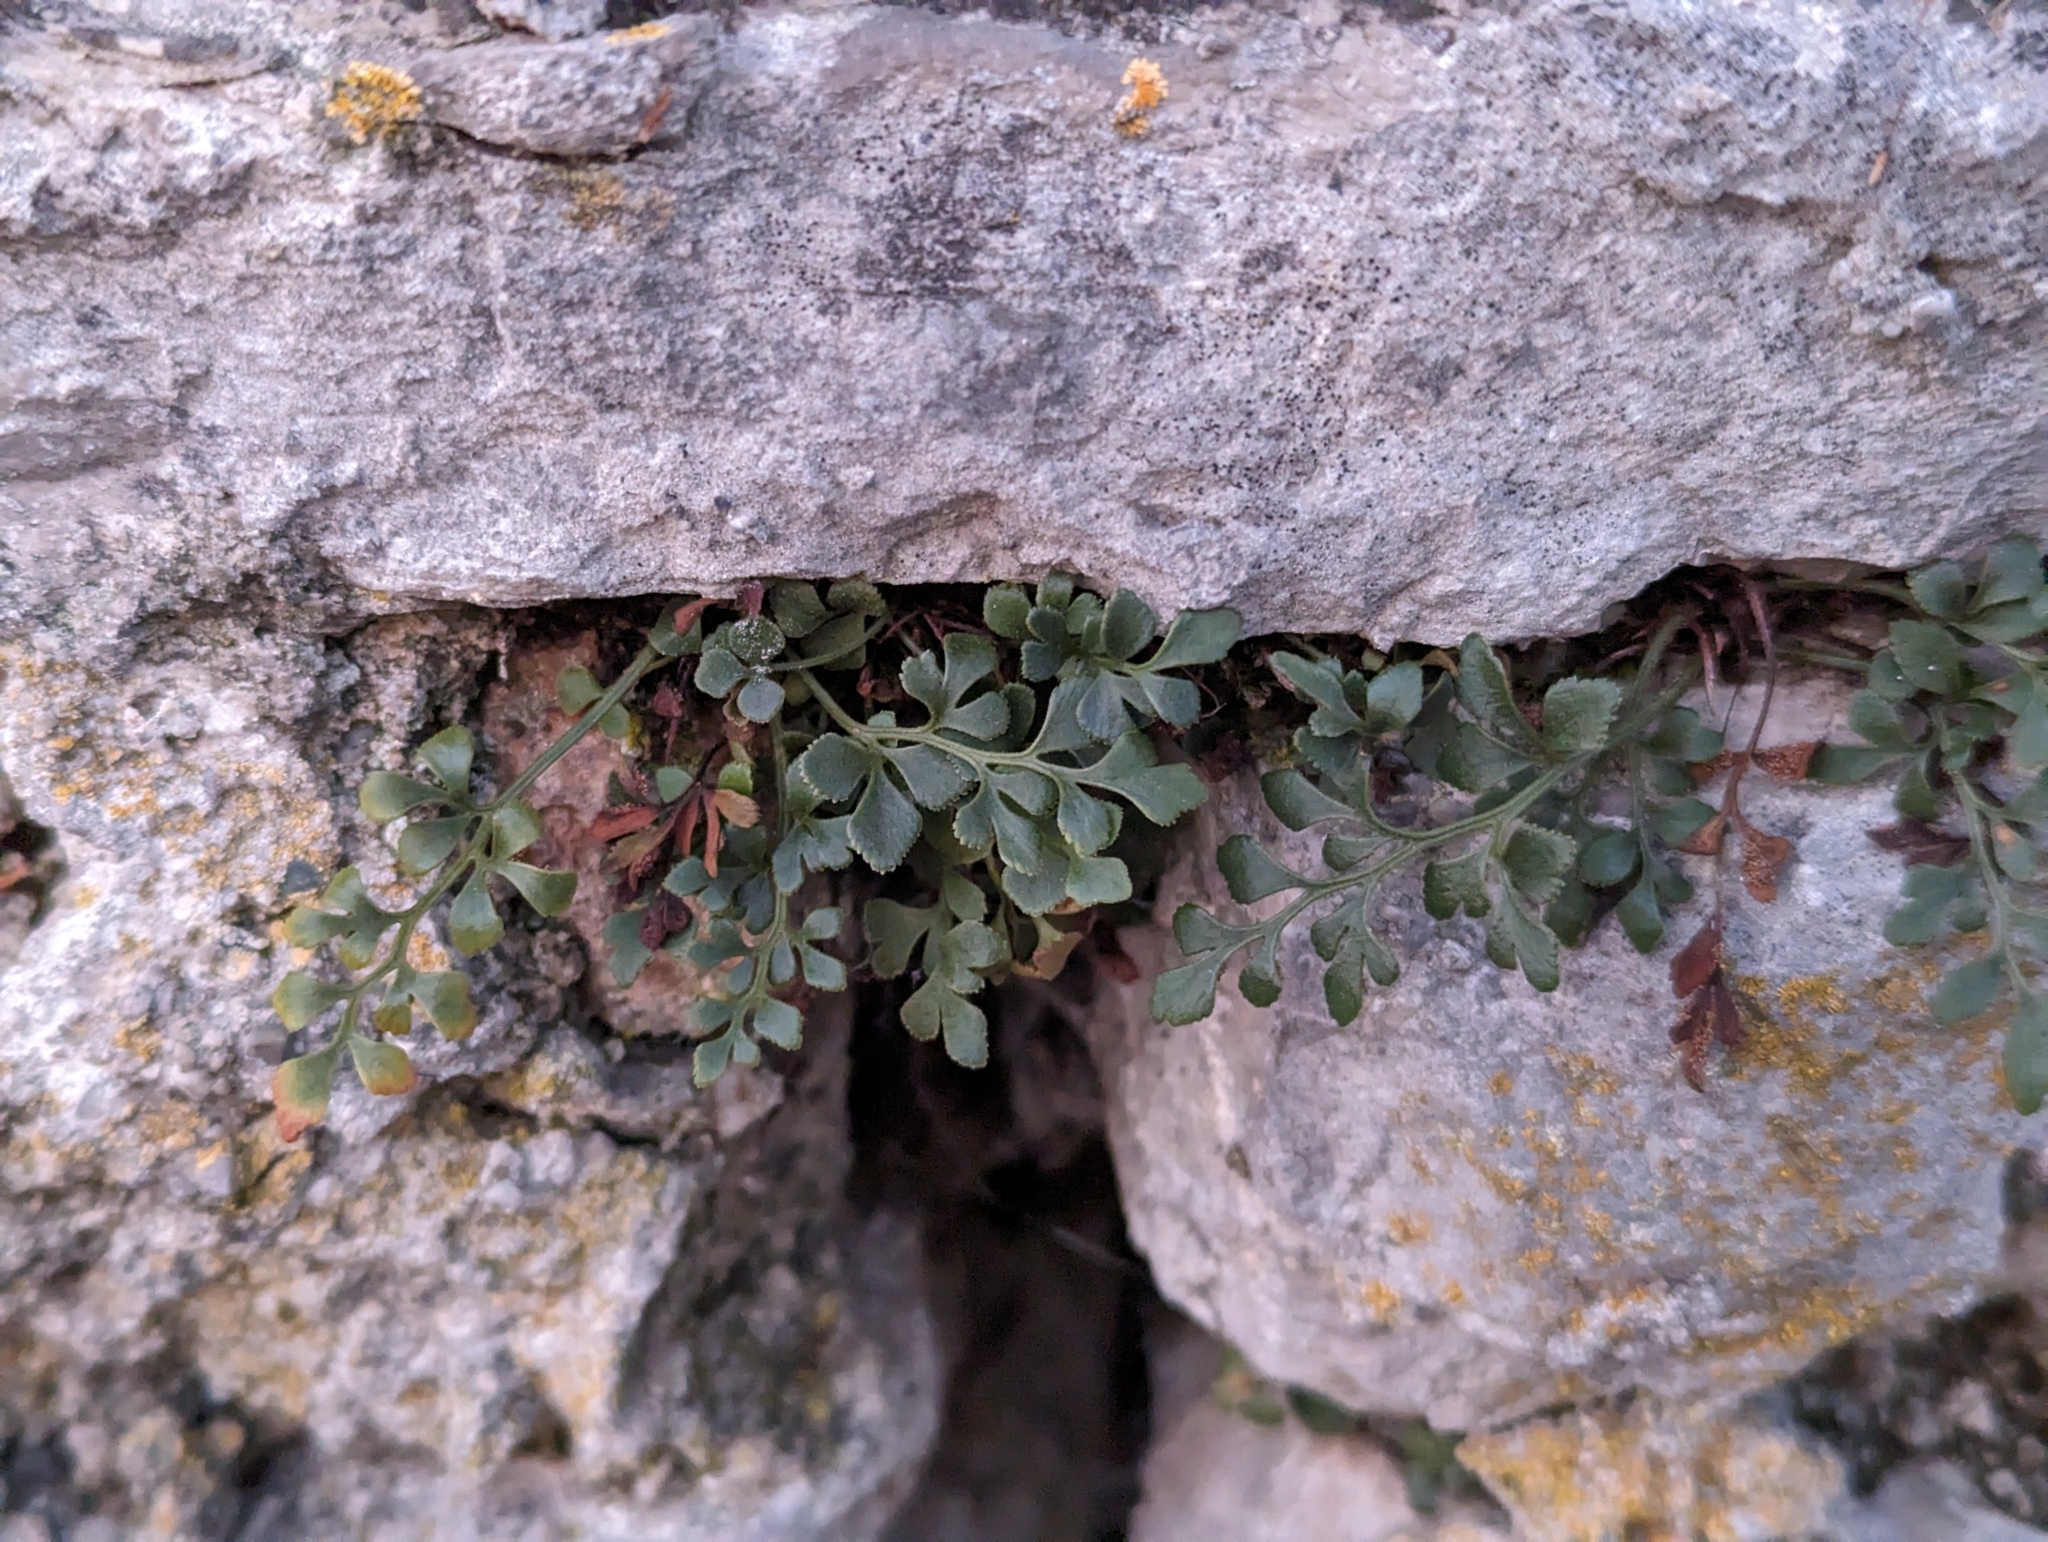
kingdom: Plantae
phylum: Tracheophyta
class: Polypodiopsida
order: Polypodiales
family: Aspleniaceae
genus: Asplenium
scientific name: Asplenium ruta-muraria
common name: Wall-rue
